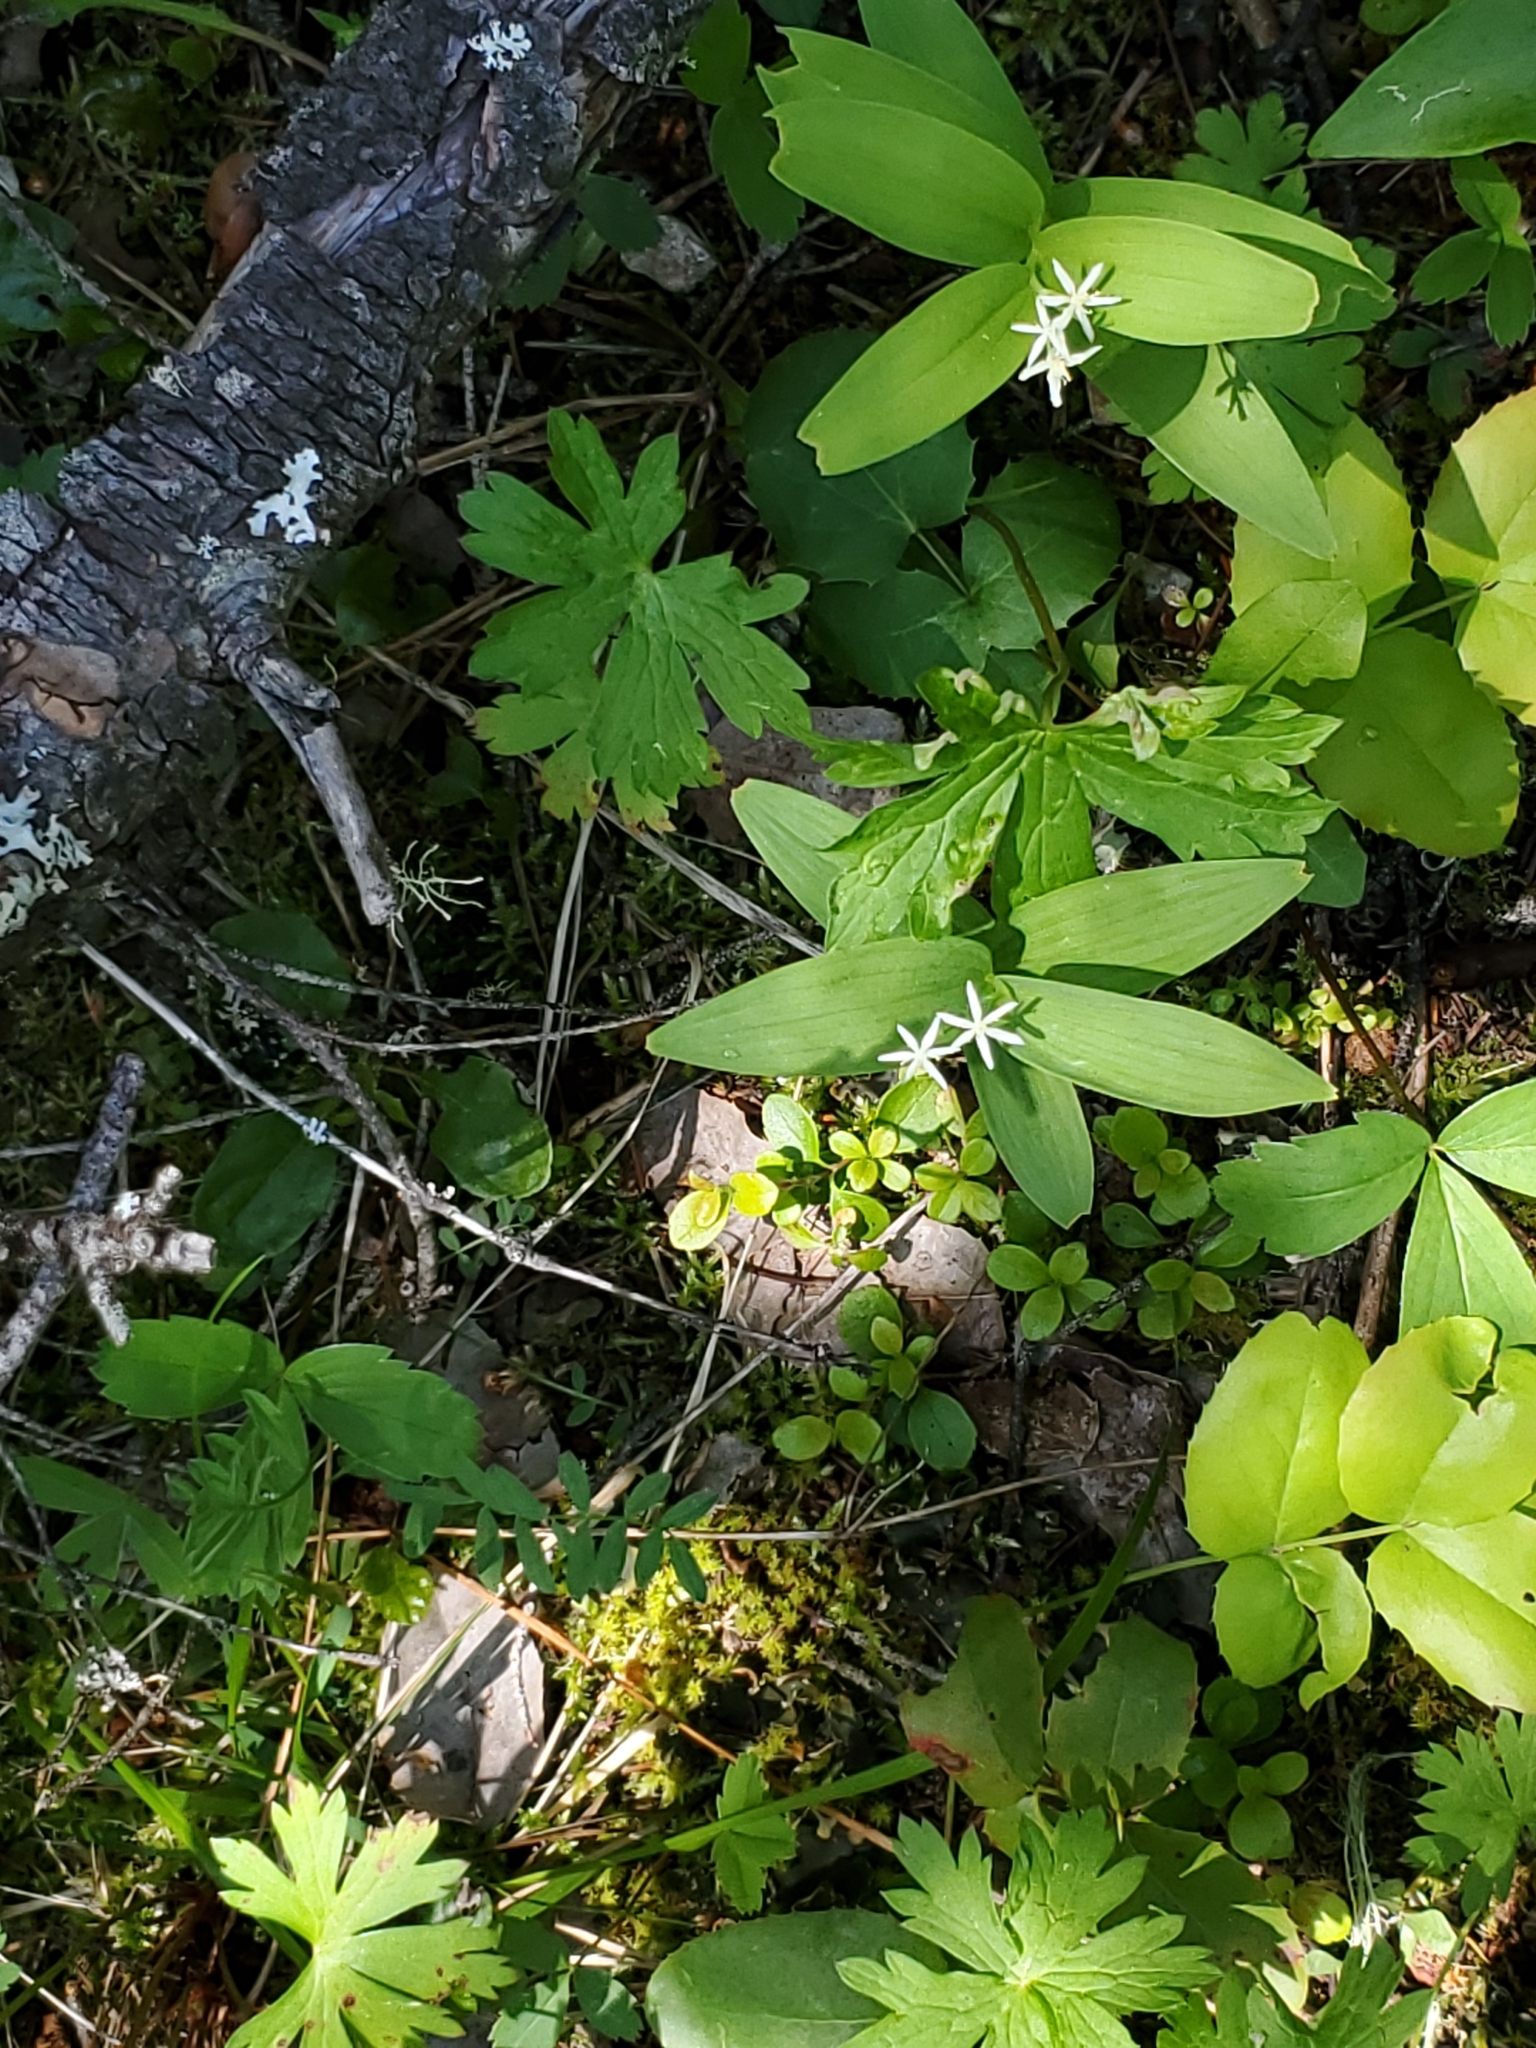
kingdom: Plantae
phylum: Tracheophyta
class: Liliopsida
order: Asparagales
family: Asparagaceae
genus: Maianthemum
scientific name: Maianthemum stellatum
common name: Little false solomon's seal
